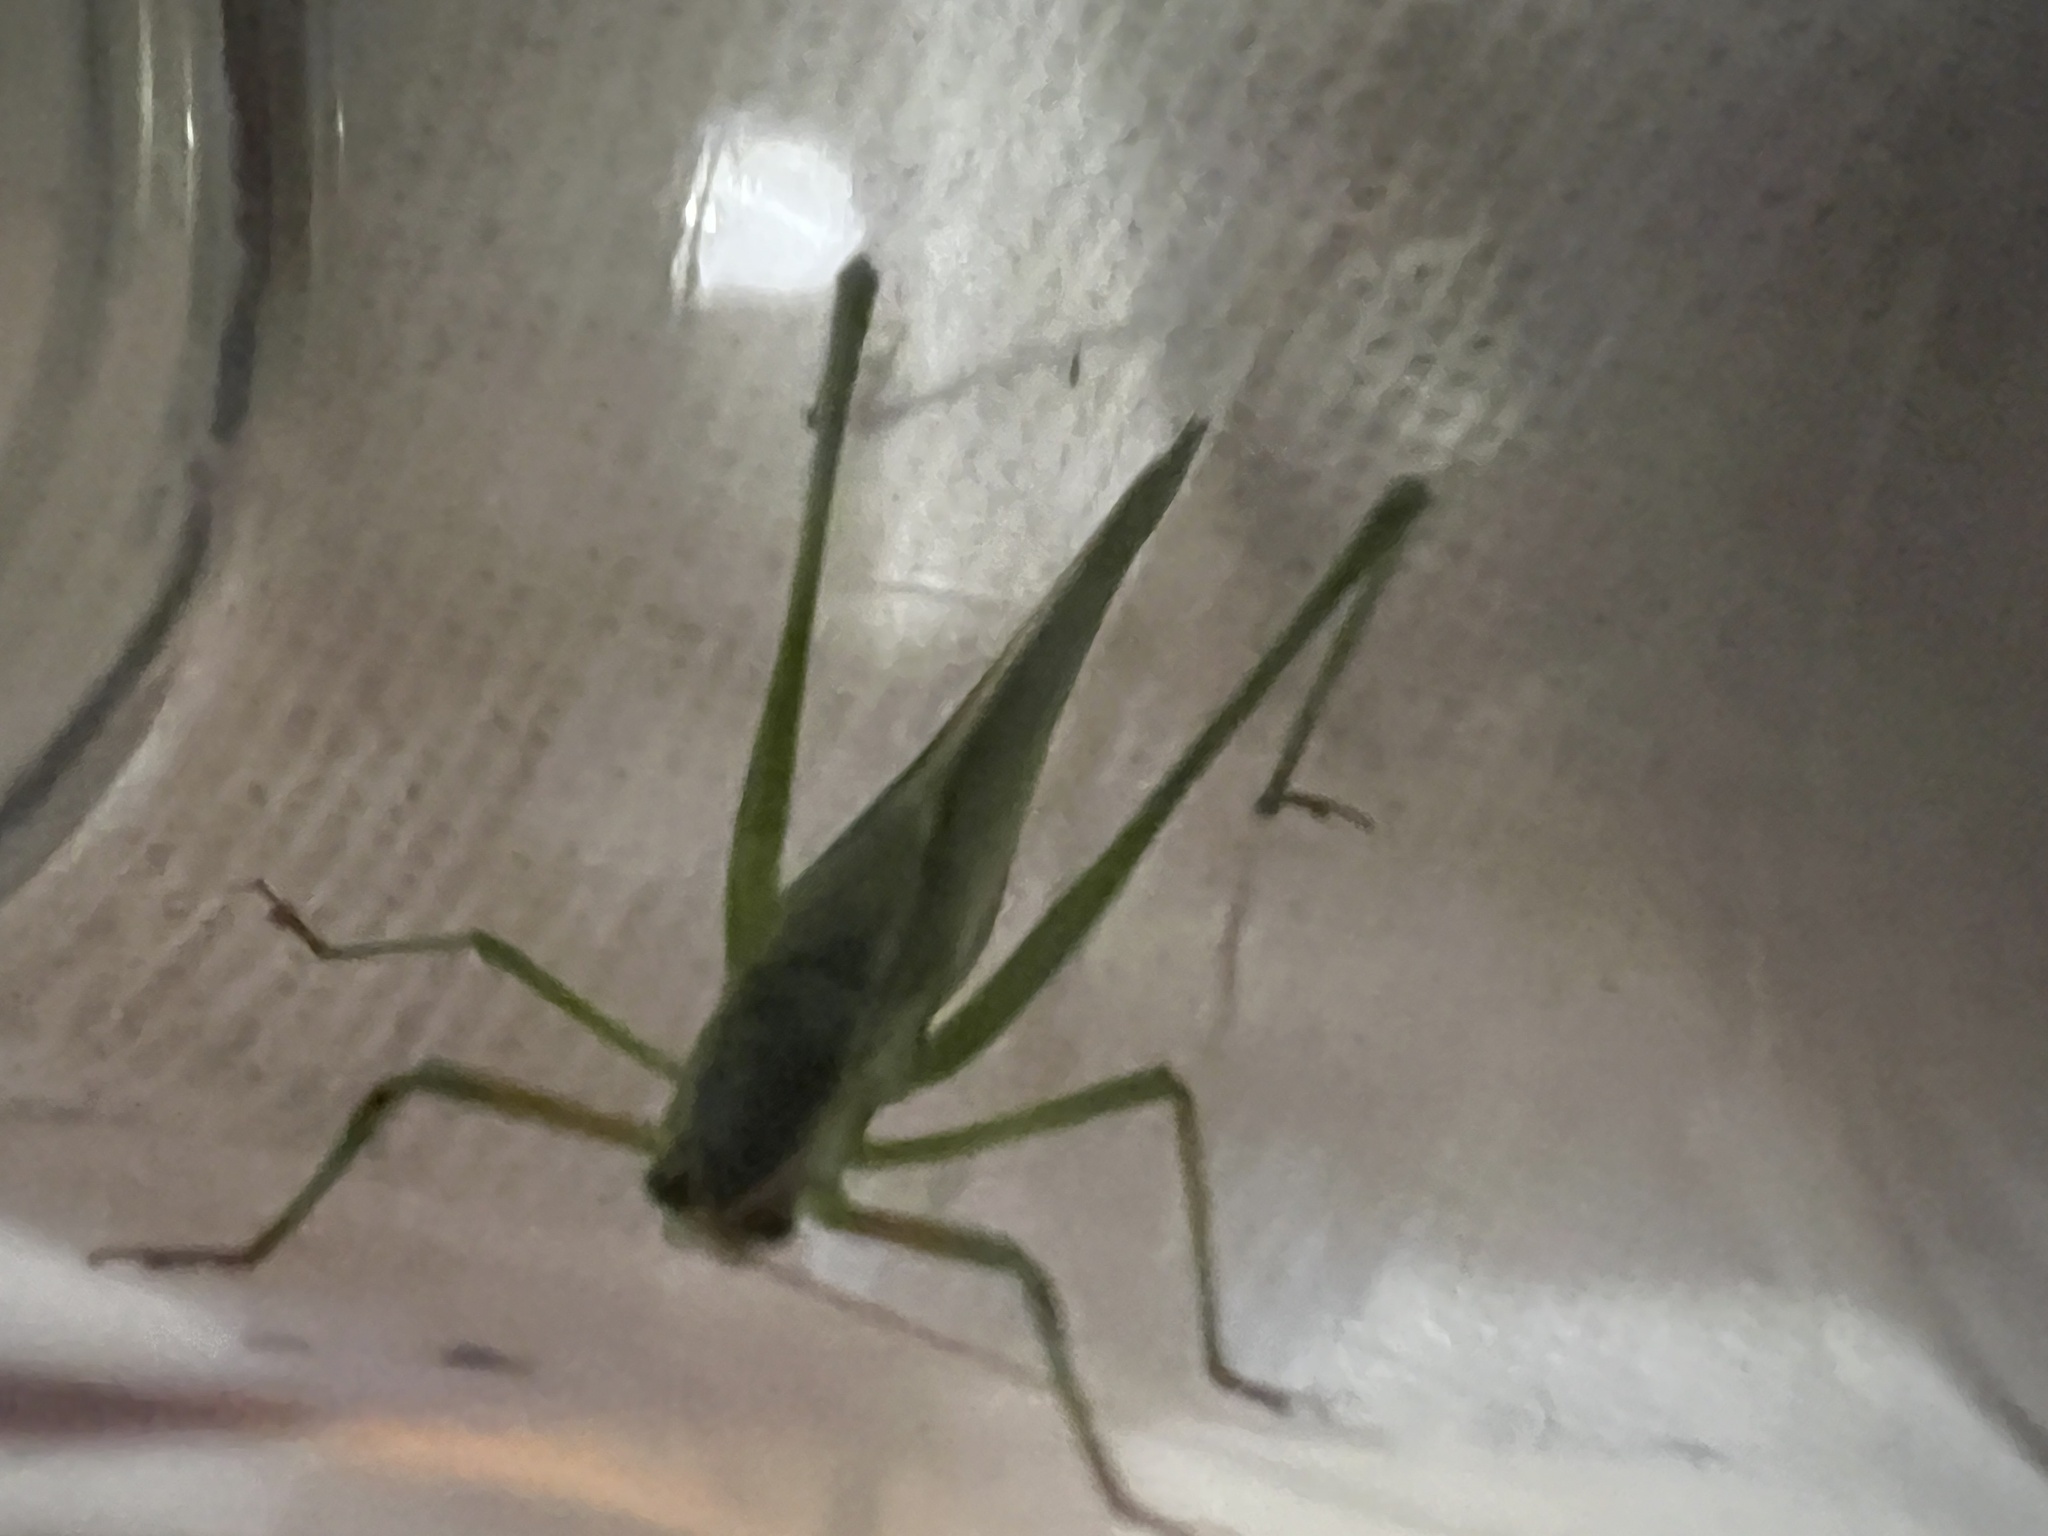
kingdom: Animalia
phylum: Arthropoda
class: Insecta
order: Orthoptera
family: Tettigoniidae
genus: Scudderia
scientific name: Scudderia mexicana
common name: Mexican bush katydid
